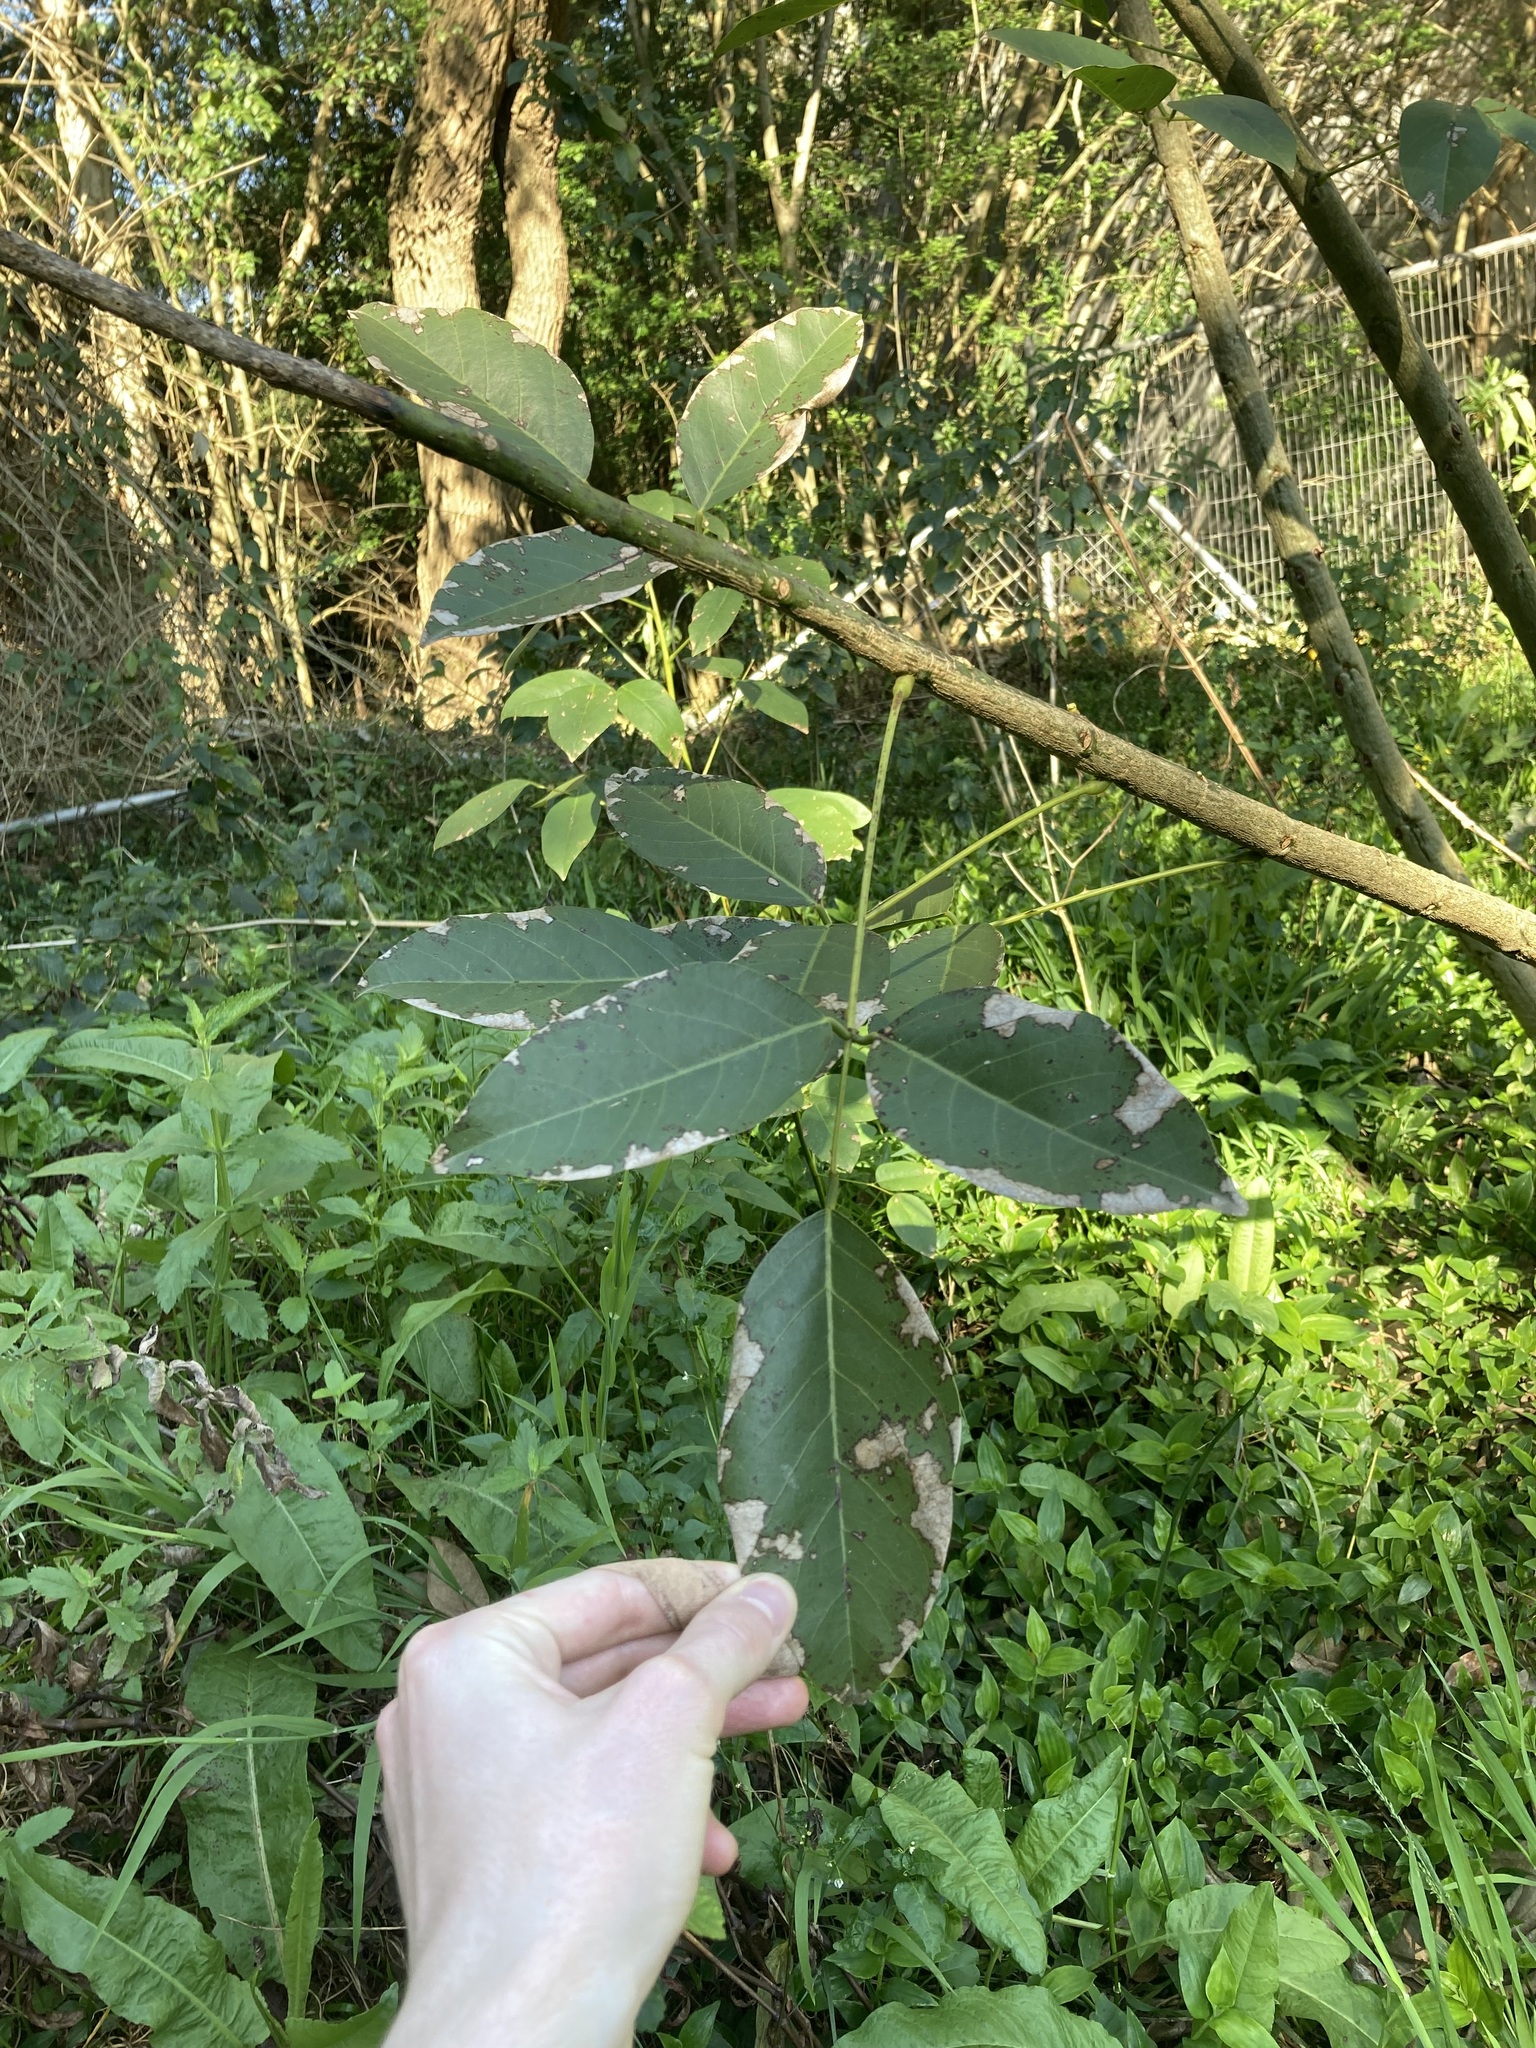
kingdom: Plantae
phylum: Tracheophyta
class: Magnoliopsida
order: Fabales
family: Fabaceae
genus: Erythrina
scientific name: Erythrina crista-galli
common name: Cockspur coral tree
